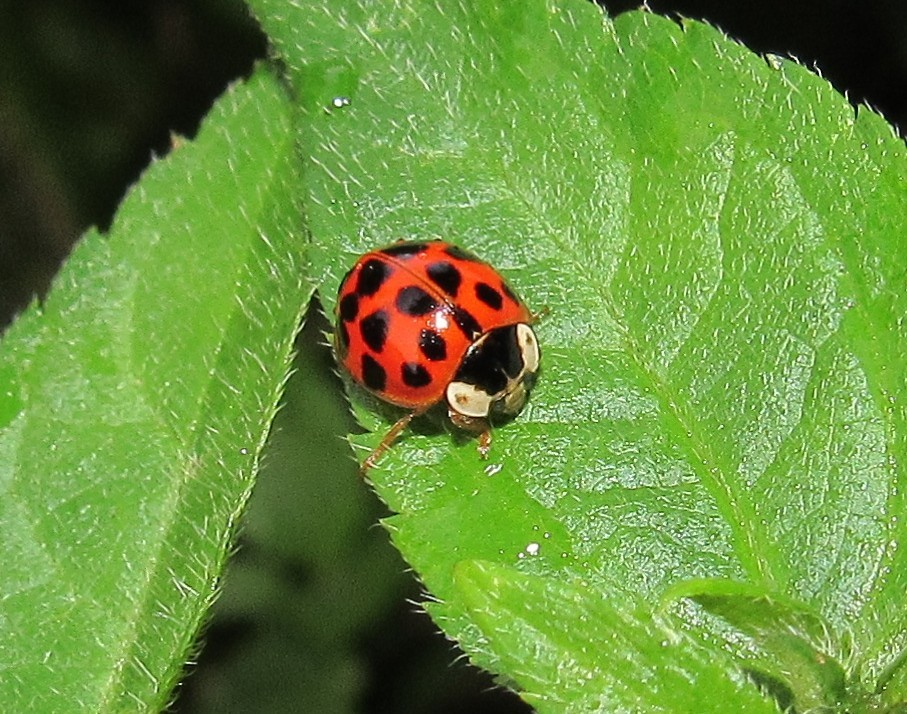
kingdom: Animalia
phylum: Arthropoda
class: Insecta
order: Coleoptera
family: Coccinellidae
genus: Harmonia
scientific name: Harmonia axyridis
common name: Harlequin ladybird
